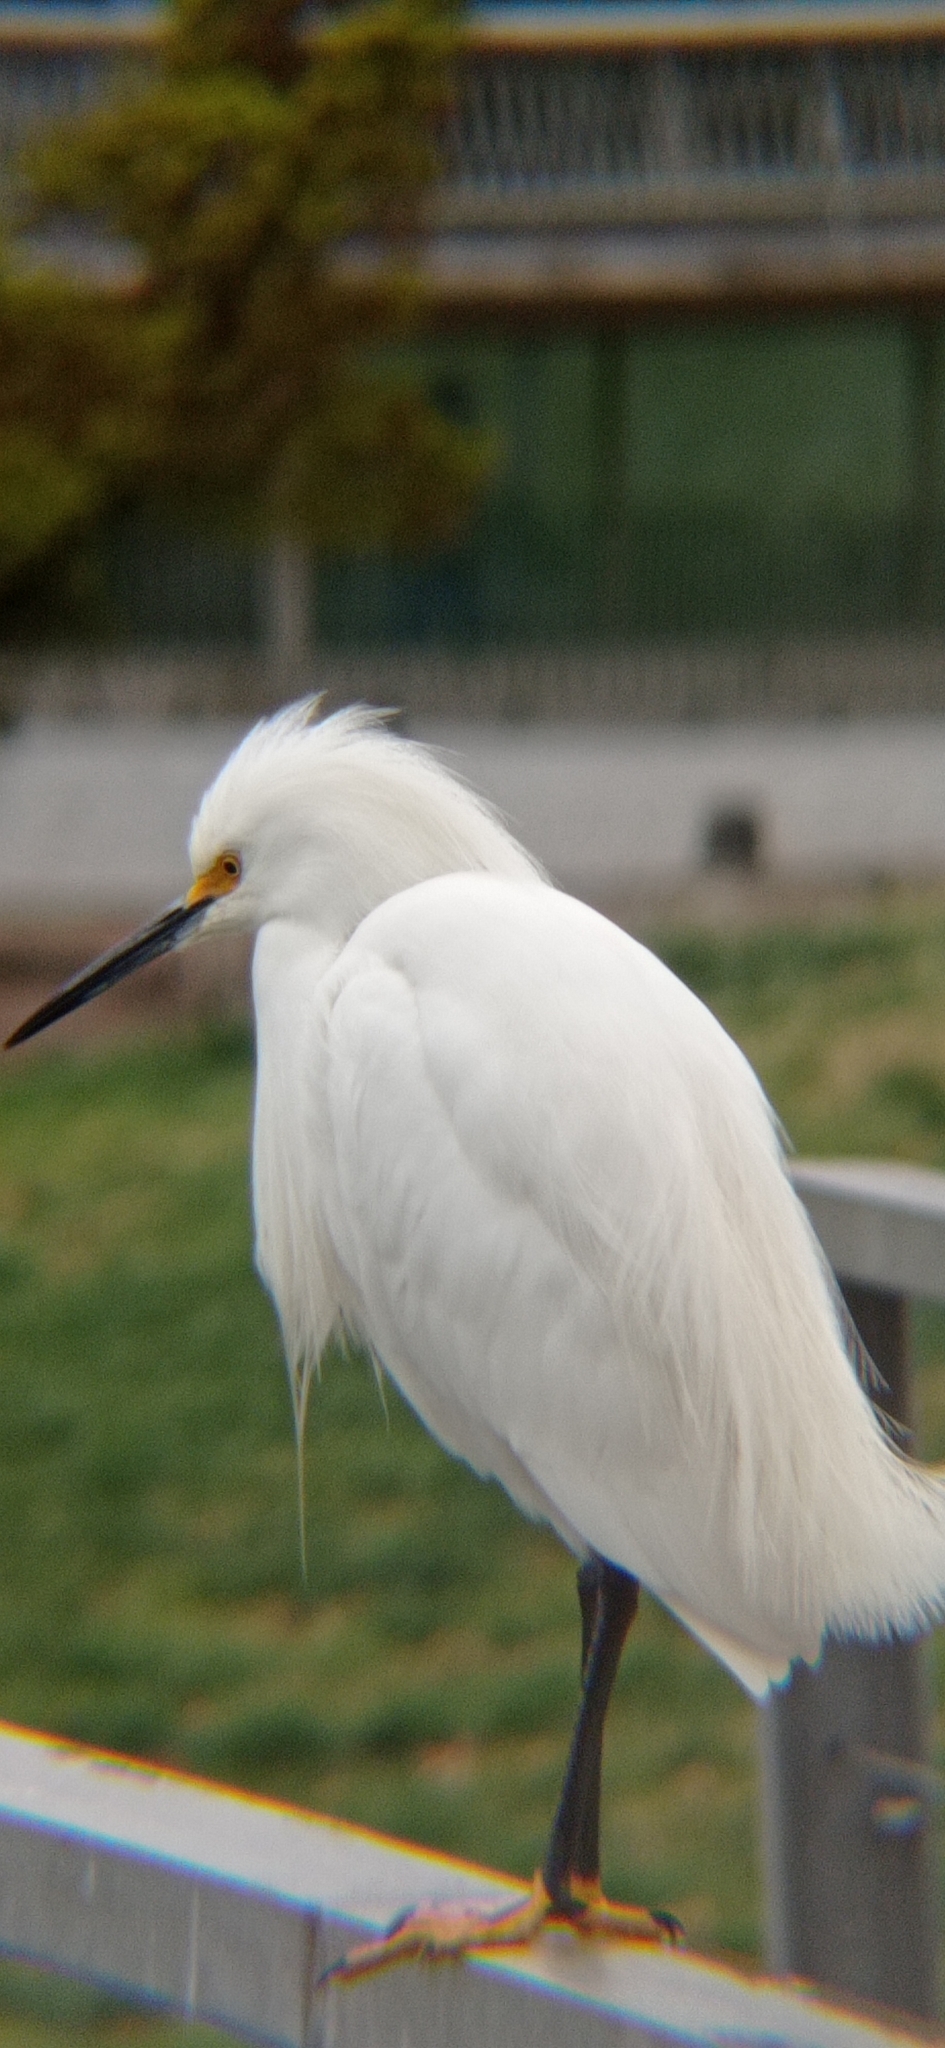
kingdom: Animalia
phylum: Chordata
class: Aves
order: Pelecaniformes
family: Ardeidae
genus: Egretta
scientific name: Egretta thula
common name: Snowy egret
